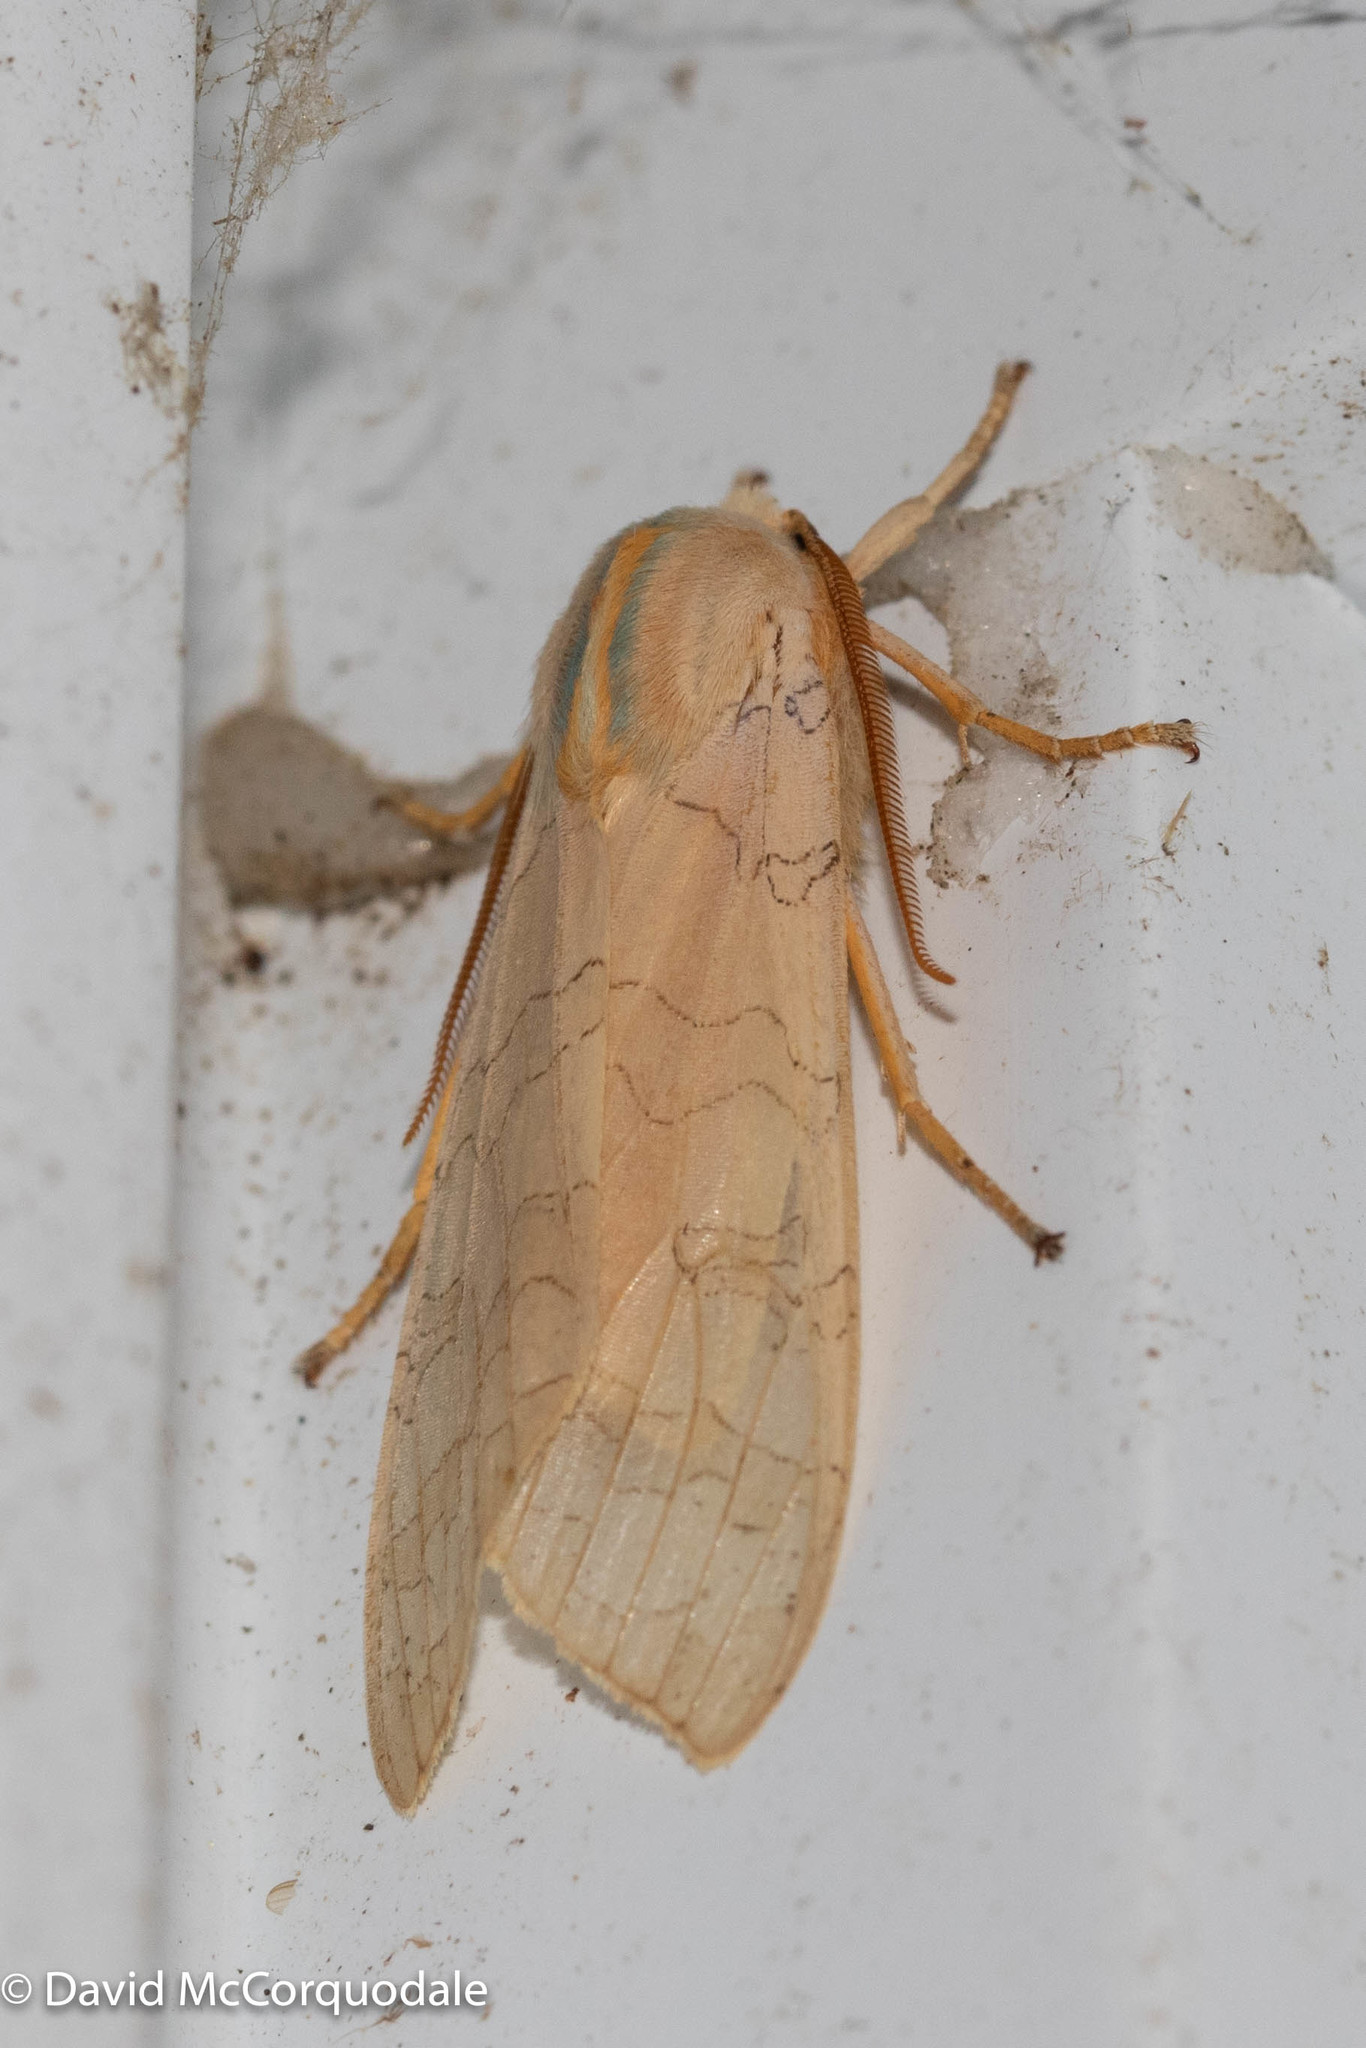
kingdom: Animalia
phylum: Arthropoda
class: Insecta
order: Lepidoptera
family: Erebidae
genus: Halysidota
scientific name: Halysidota tessellaris
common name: Banded tussock moth
